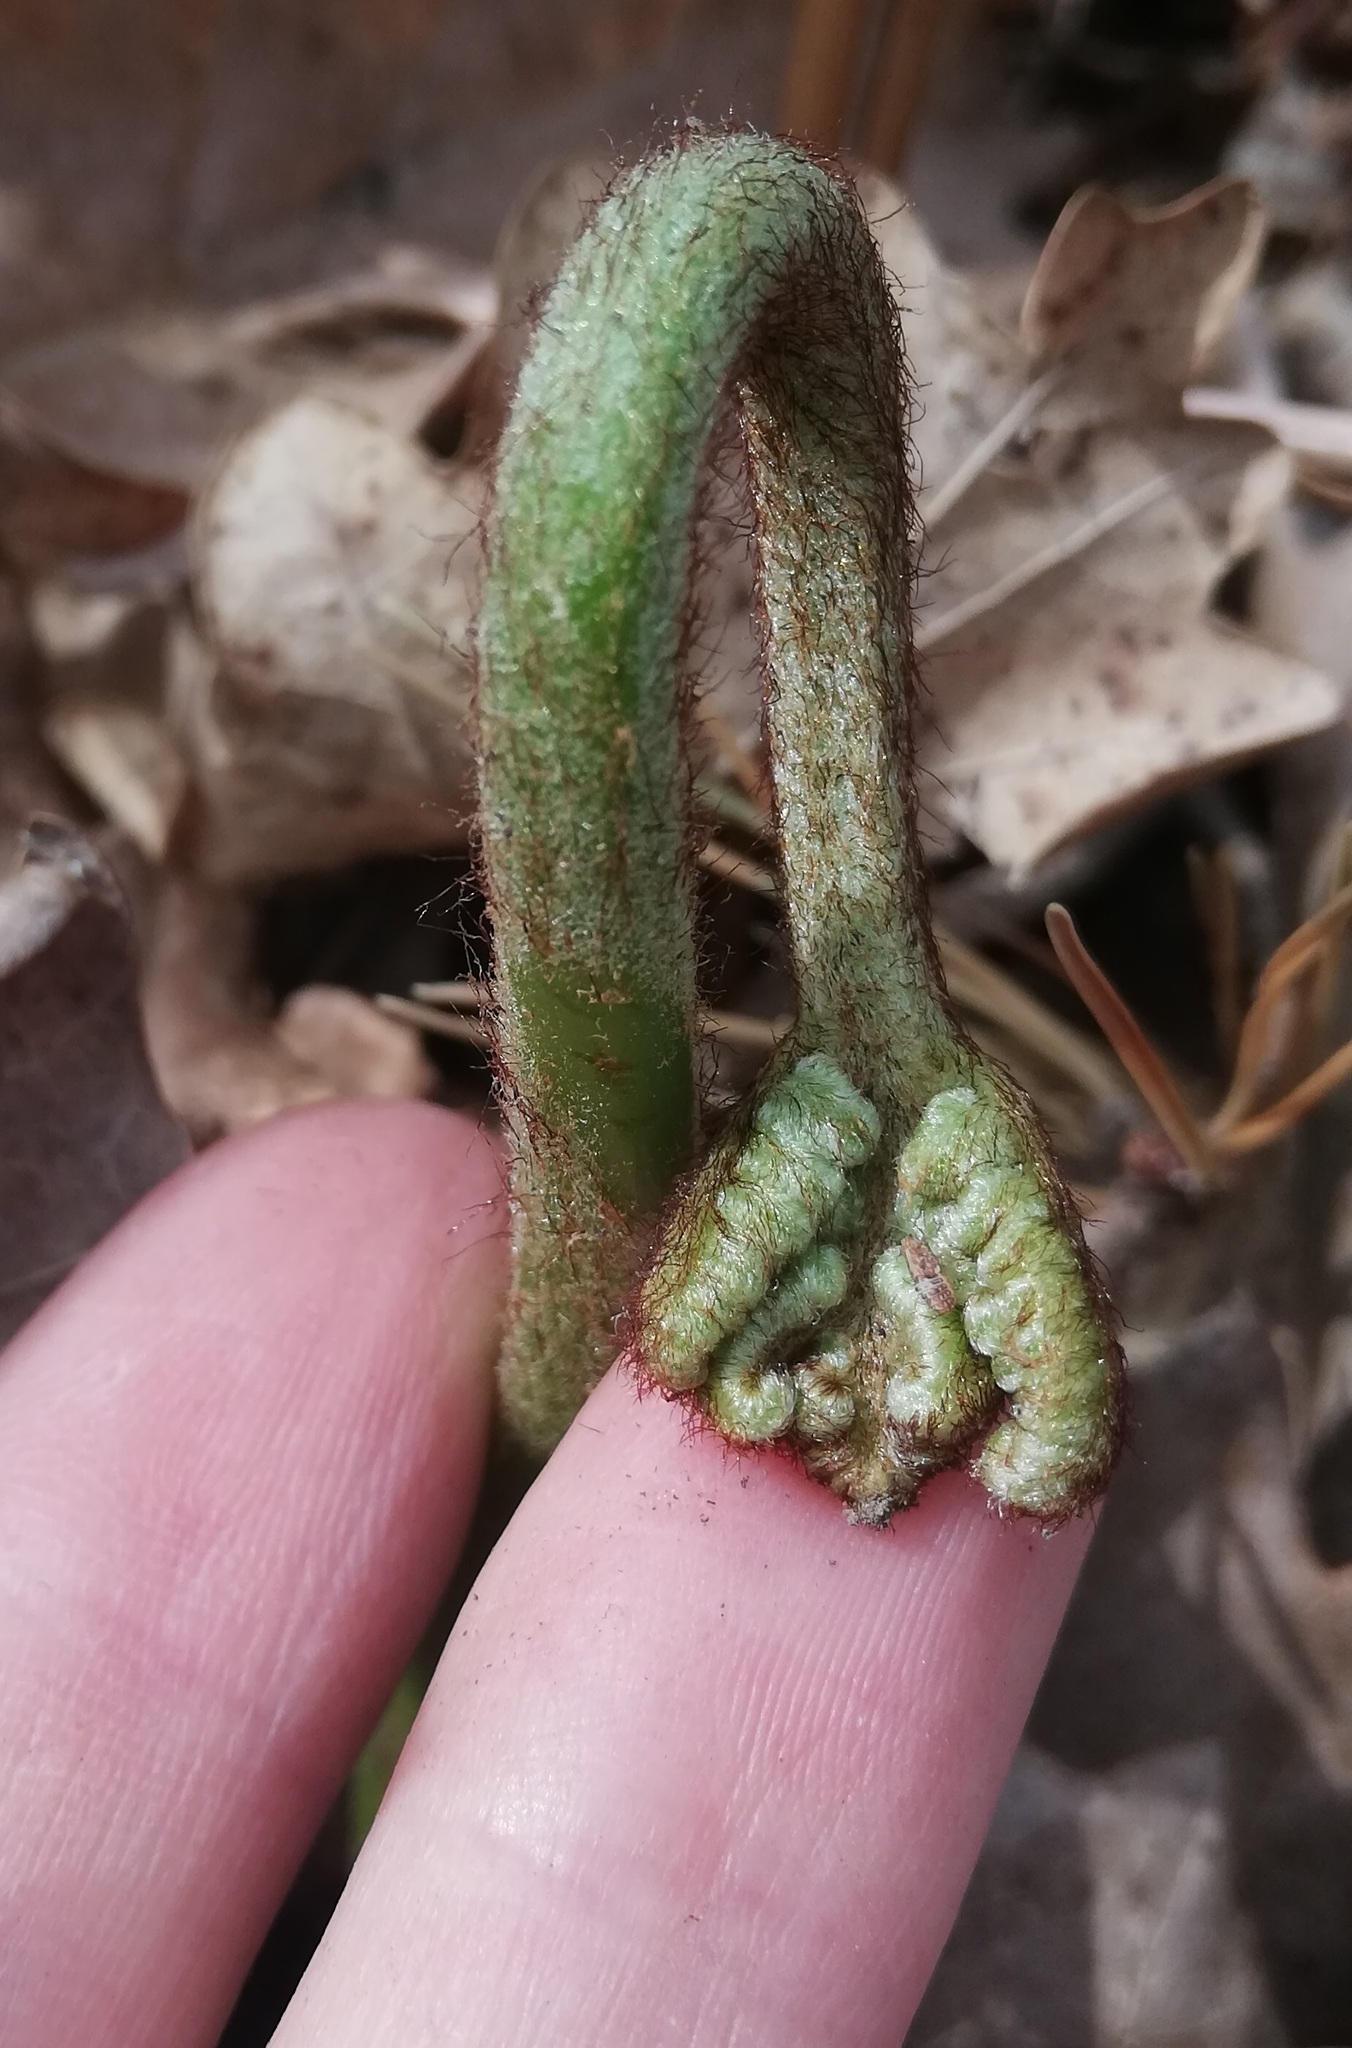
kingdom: Plantae
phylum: Tracheophyta
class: Polypodiopsida
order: Polypodiales
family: Dennstaedtiaceae
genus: Pteridium
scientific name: Pteridium aquilinum
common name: Bracken
